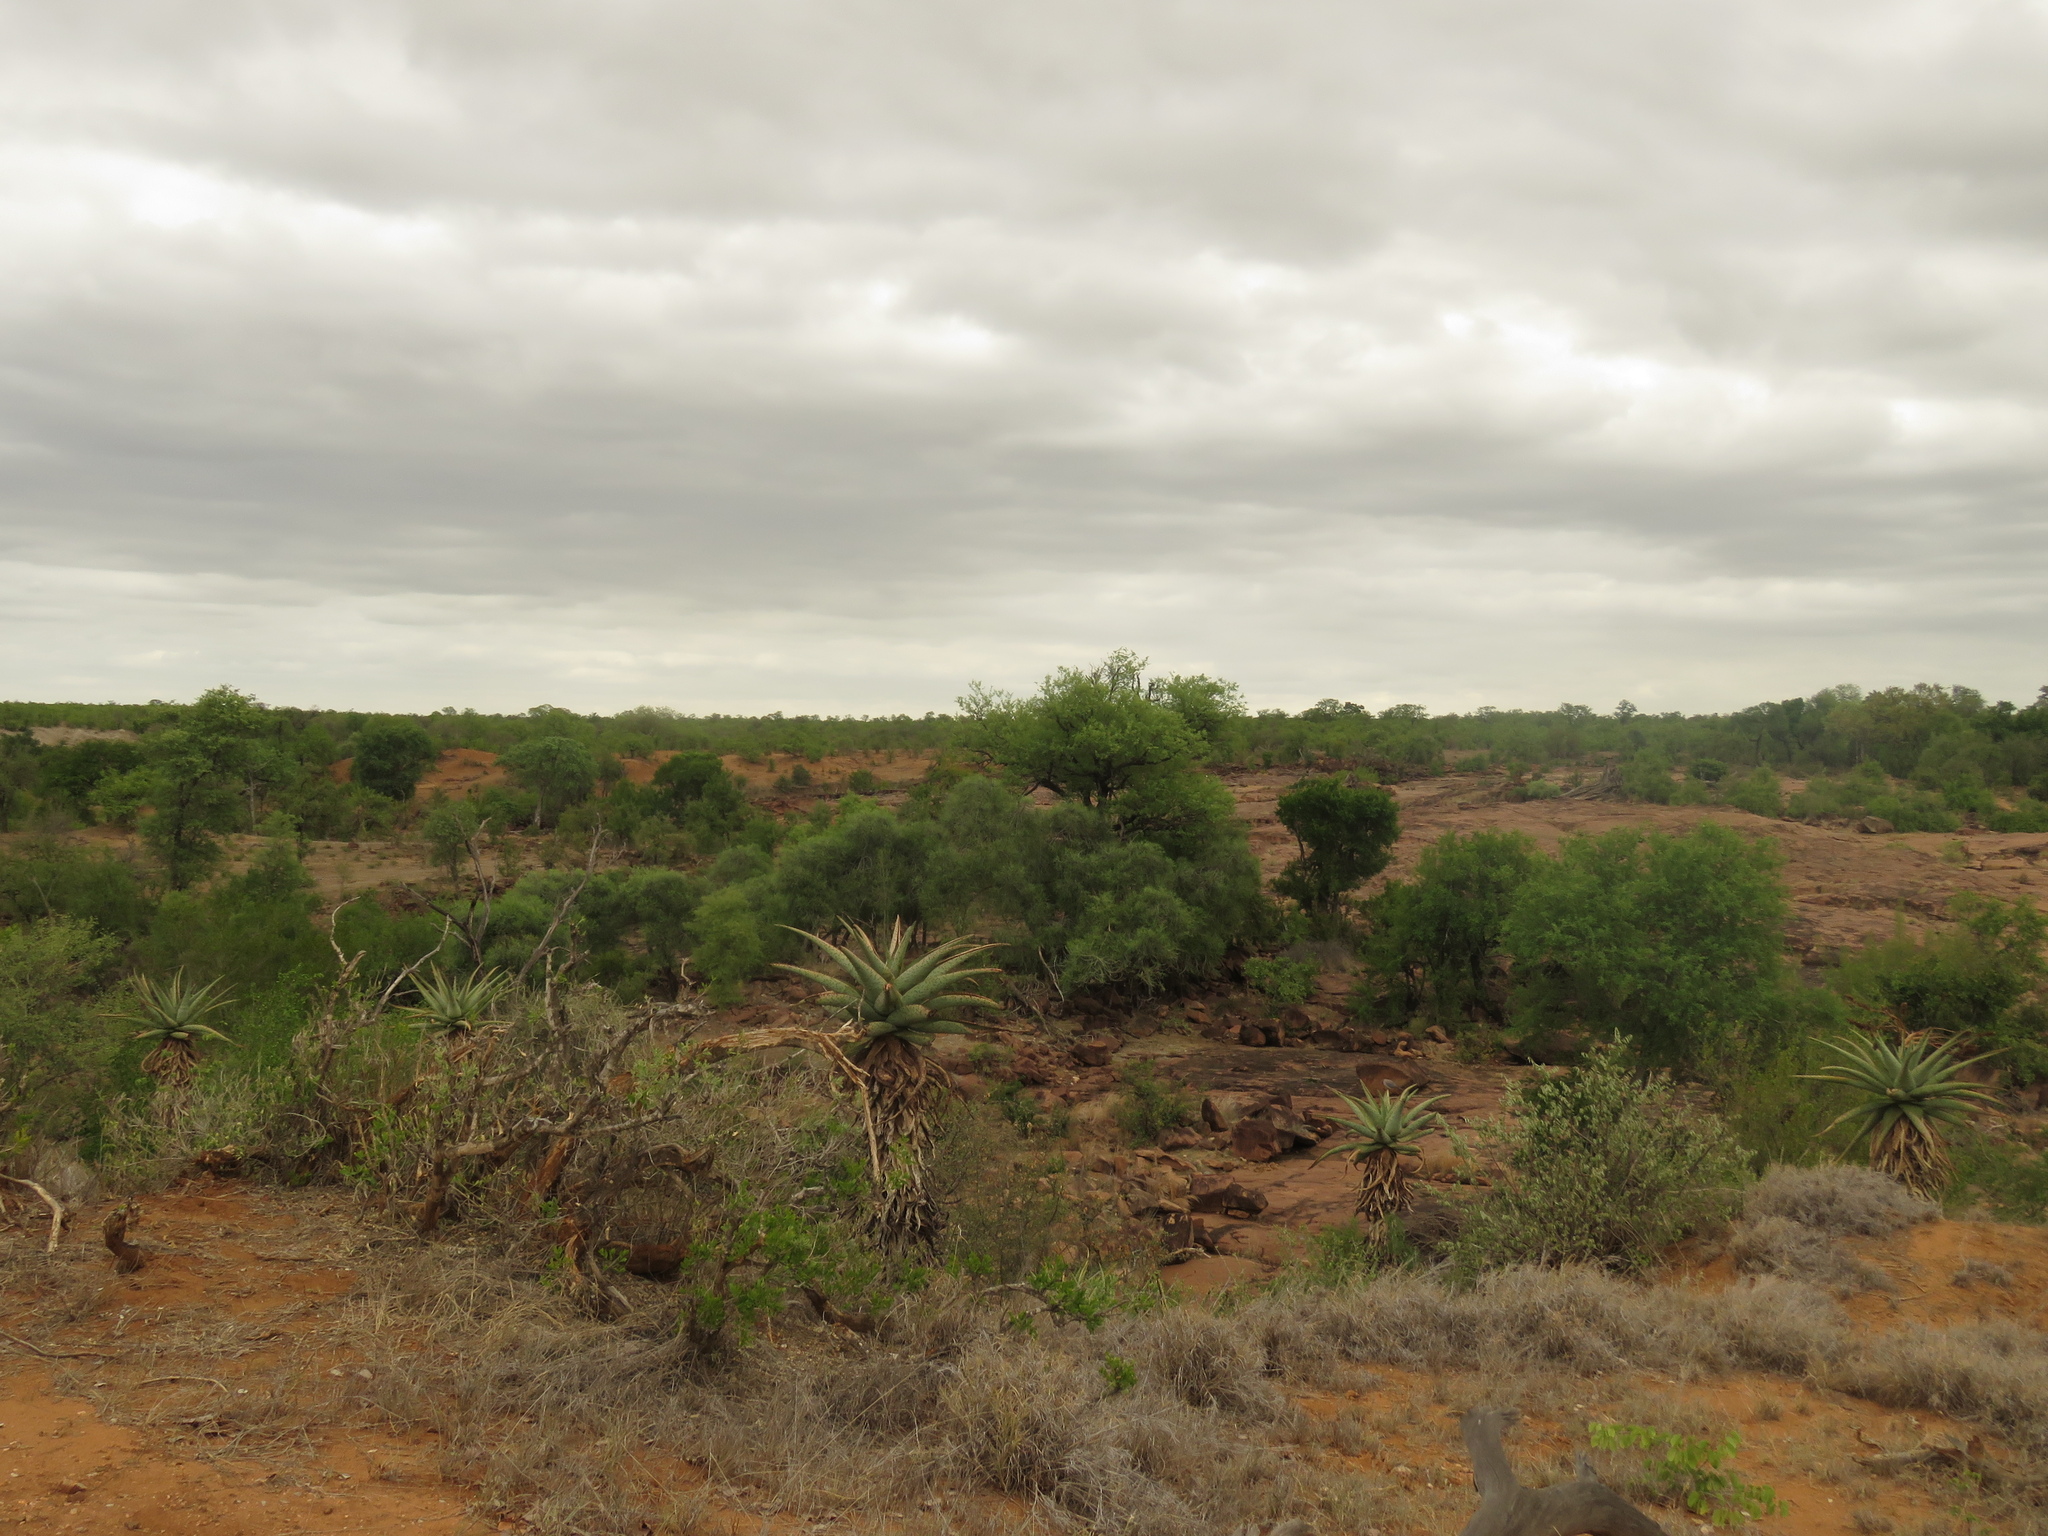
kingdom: Plantae
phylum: Tracheophyta
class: Liliopsida
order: Asparagales
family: Asphodelaceae
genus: Aloe
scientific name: Aloe marlothii
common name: Flat-flowered aloe
